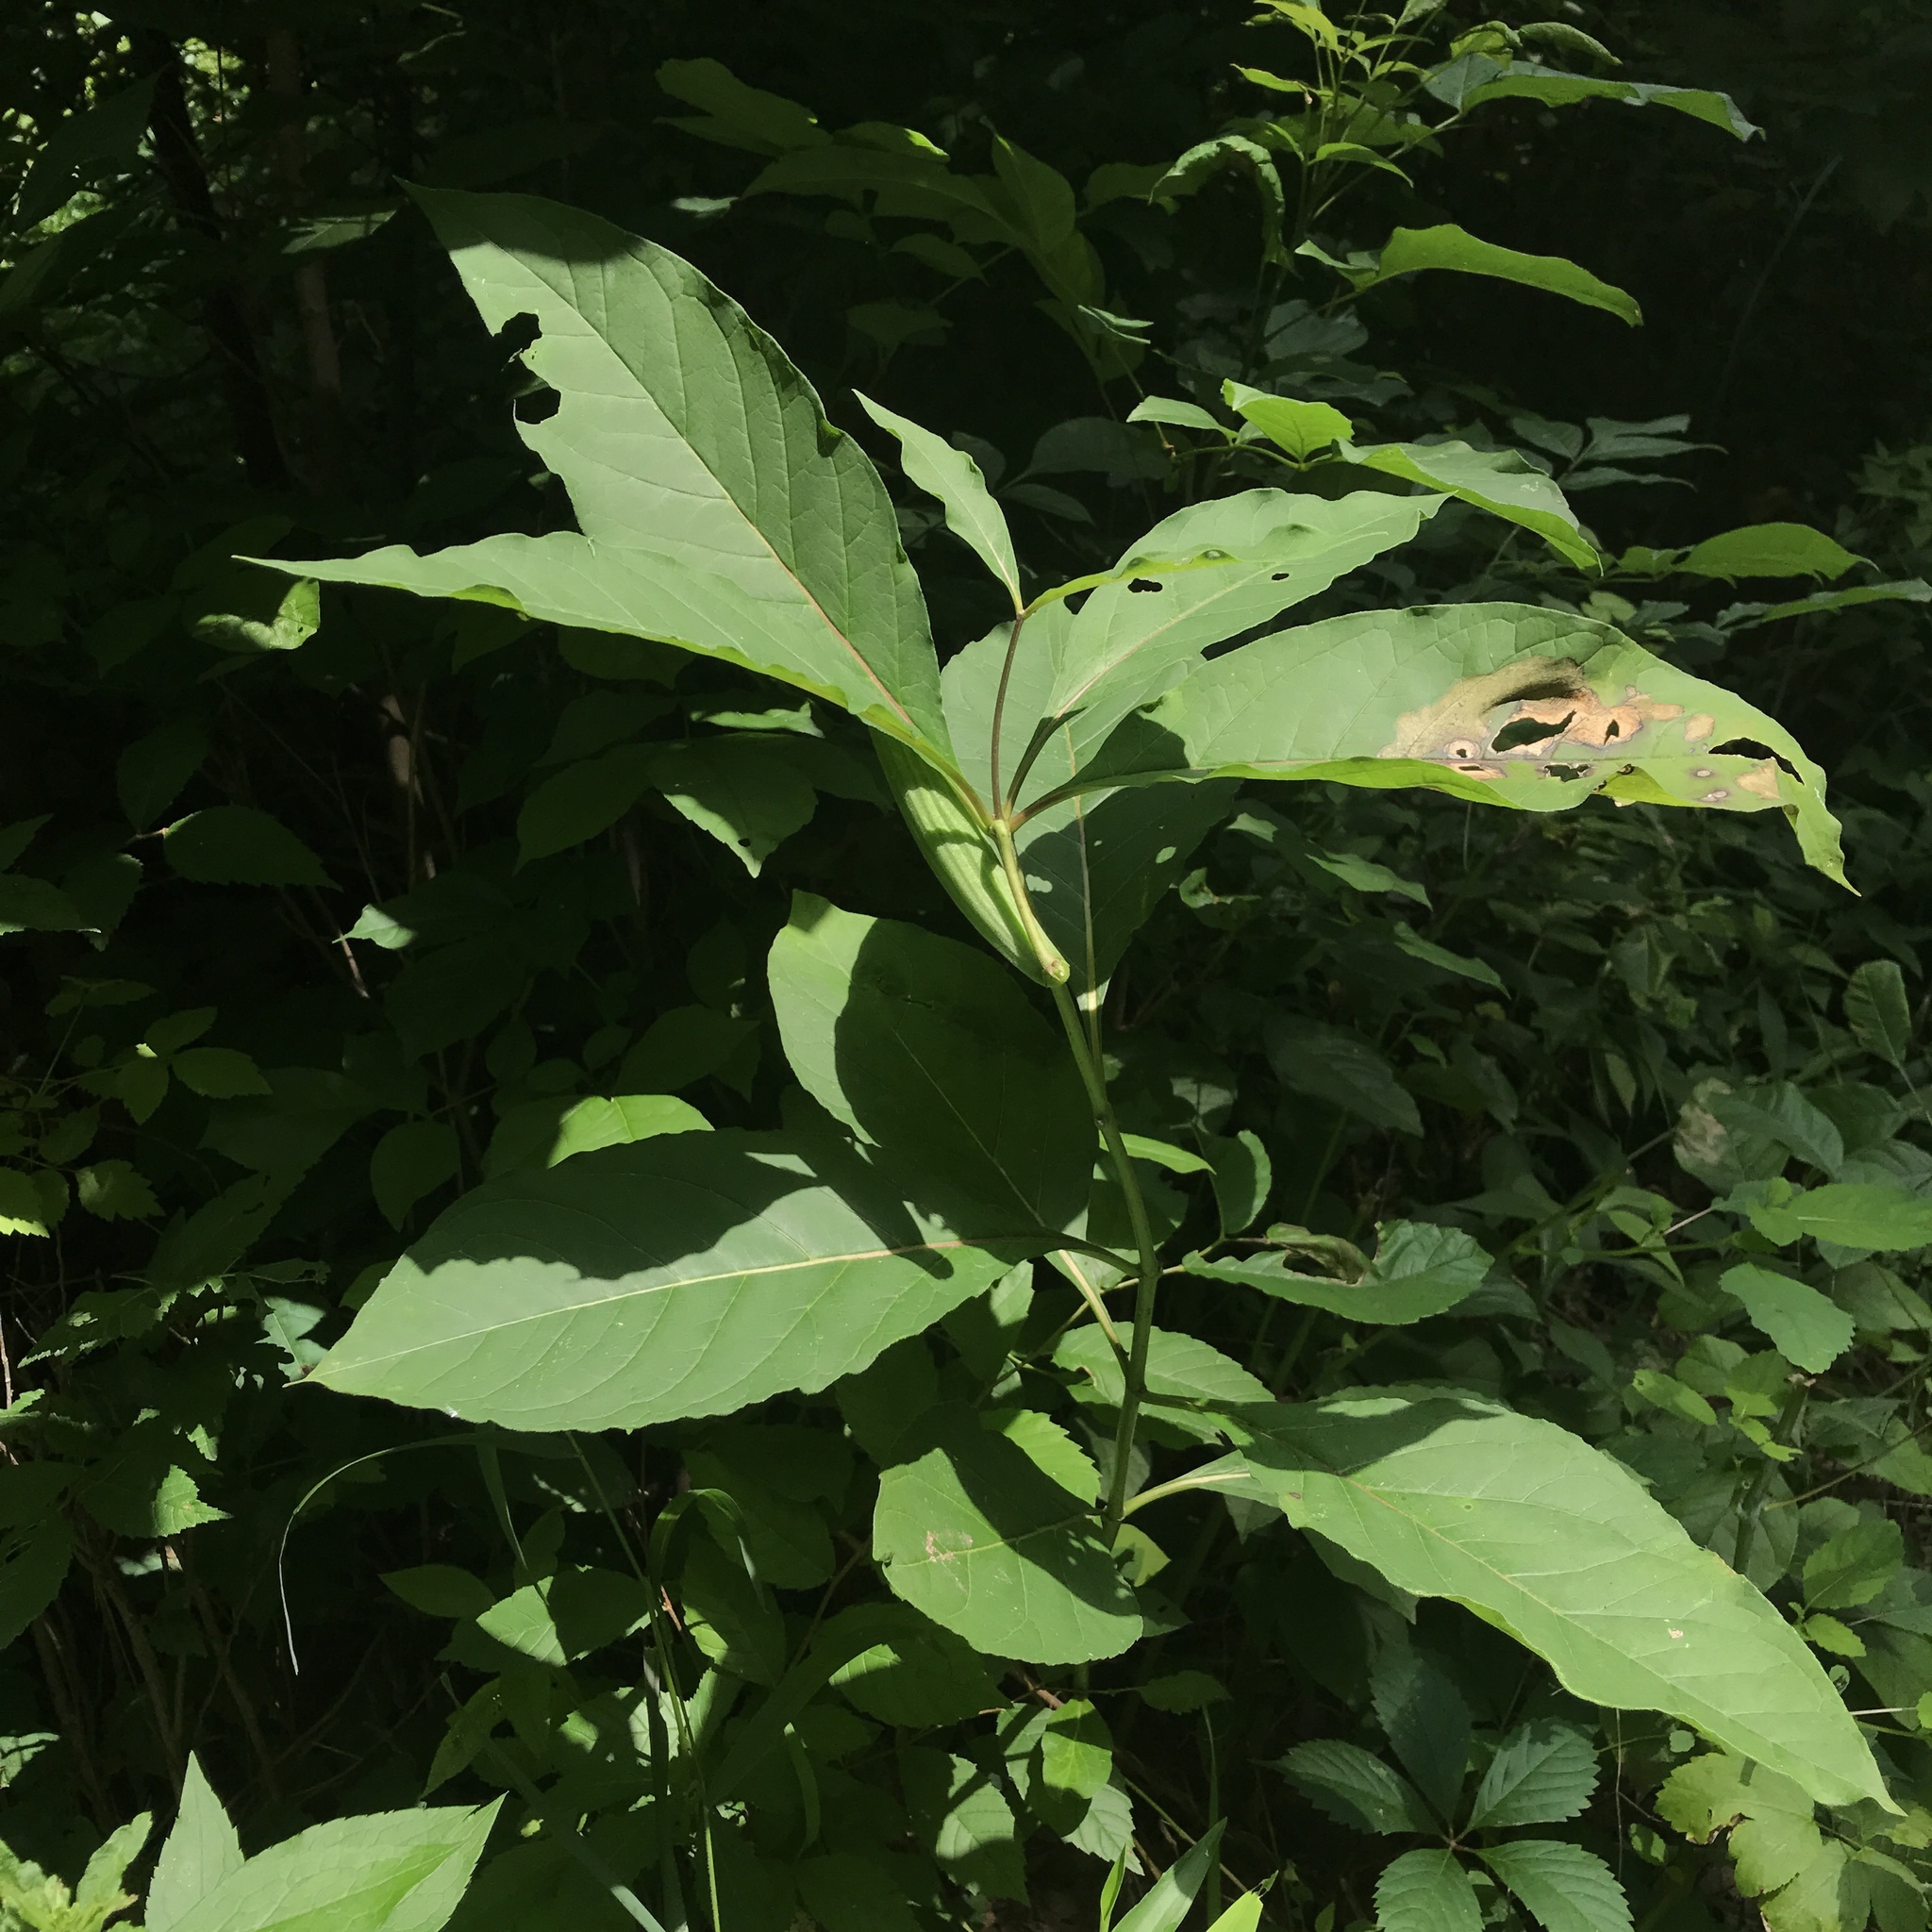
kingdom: Plantae
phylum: Tracheophyta
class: Magnoliopsida
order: Gentianales
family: Apocynaceae
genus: Asclepias
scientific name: Asclepias exaltata
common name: Poke milkweed
